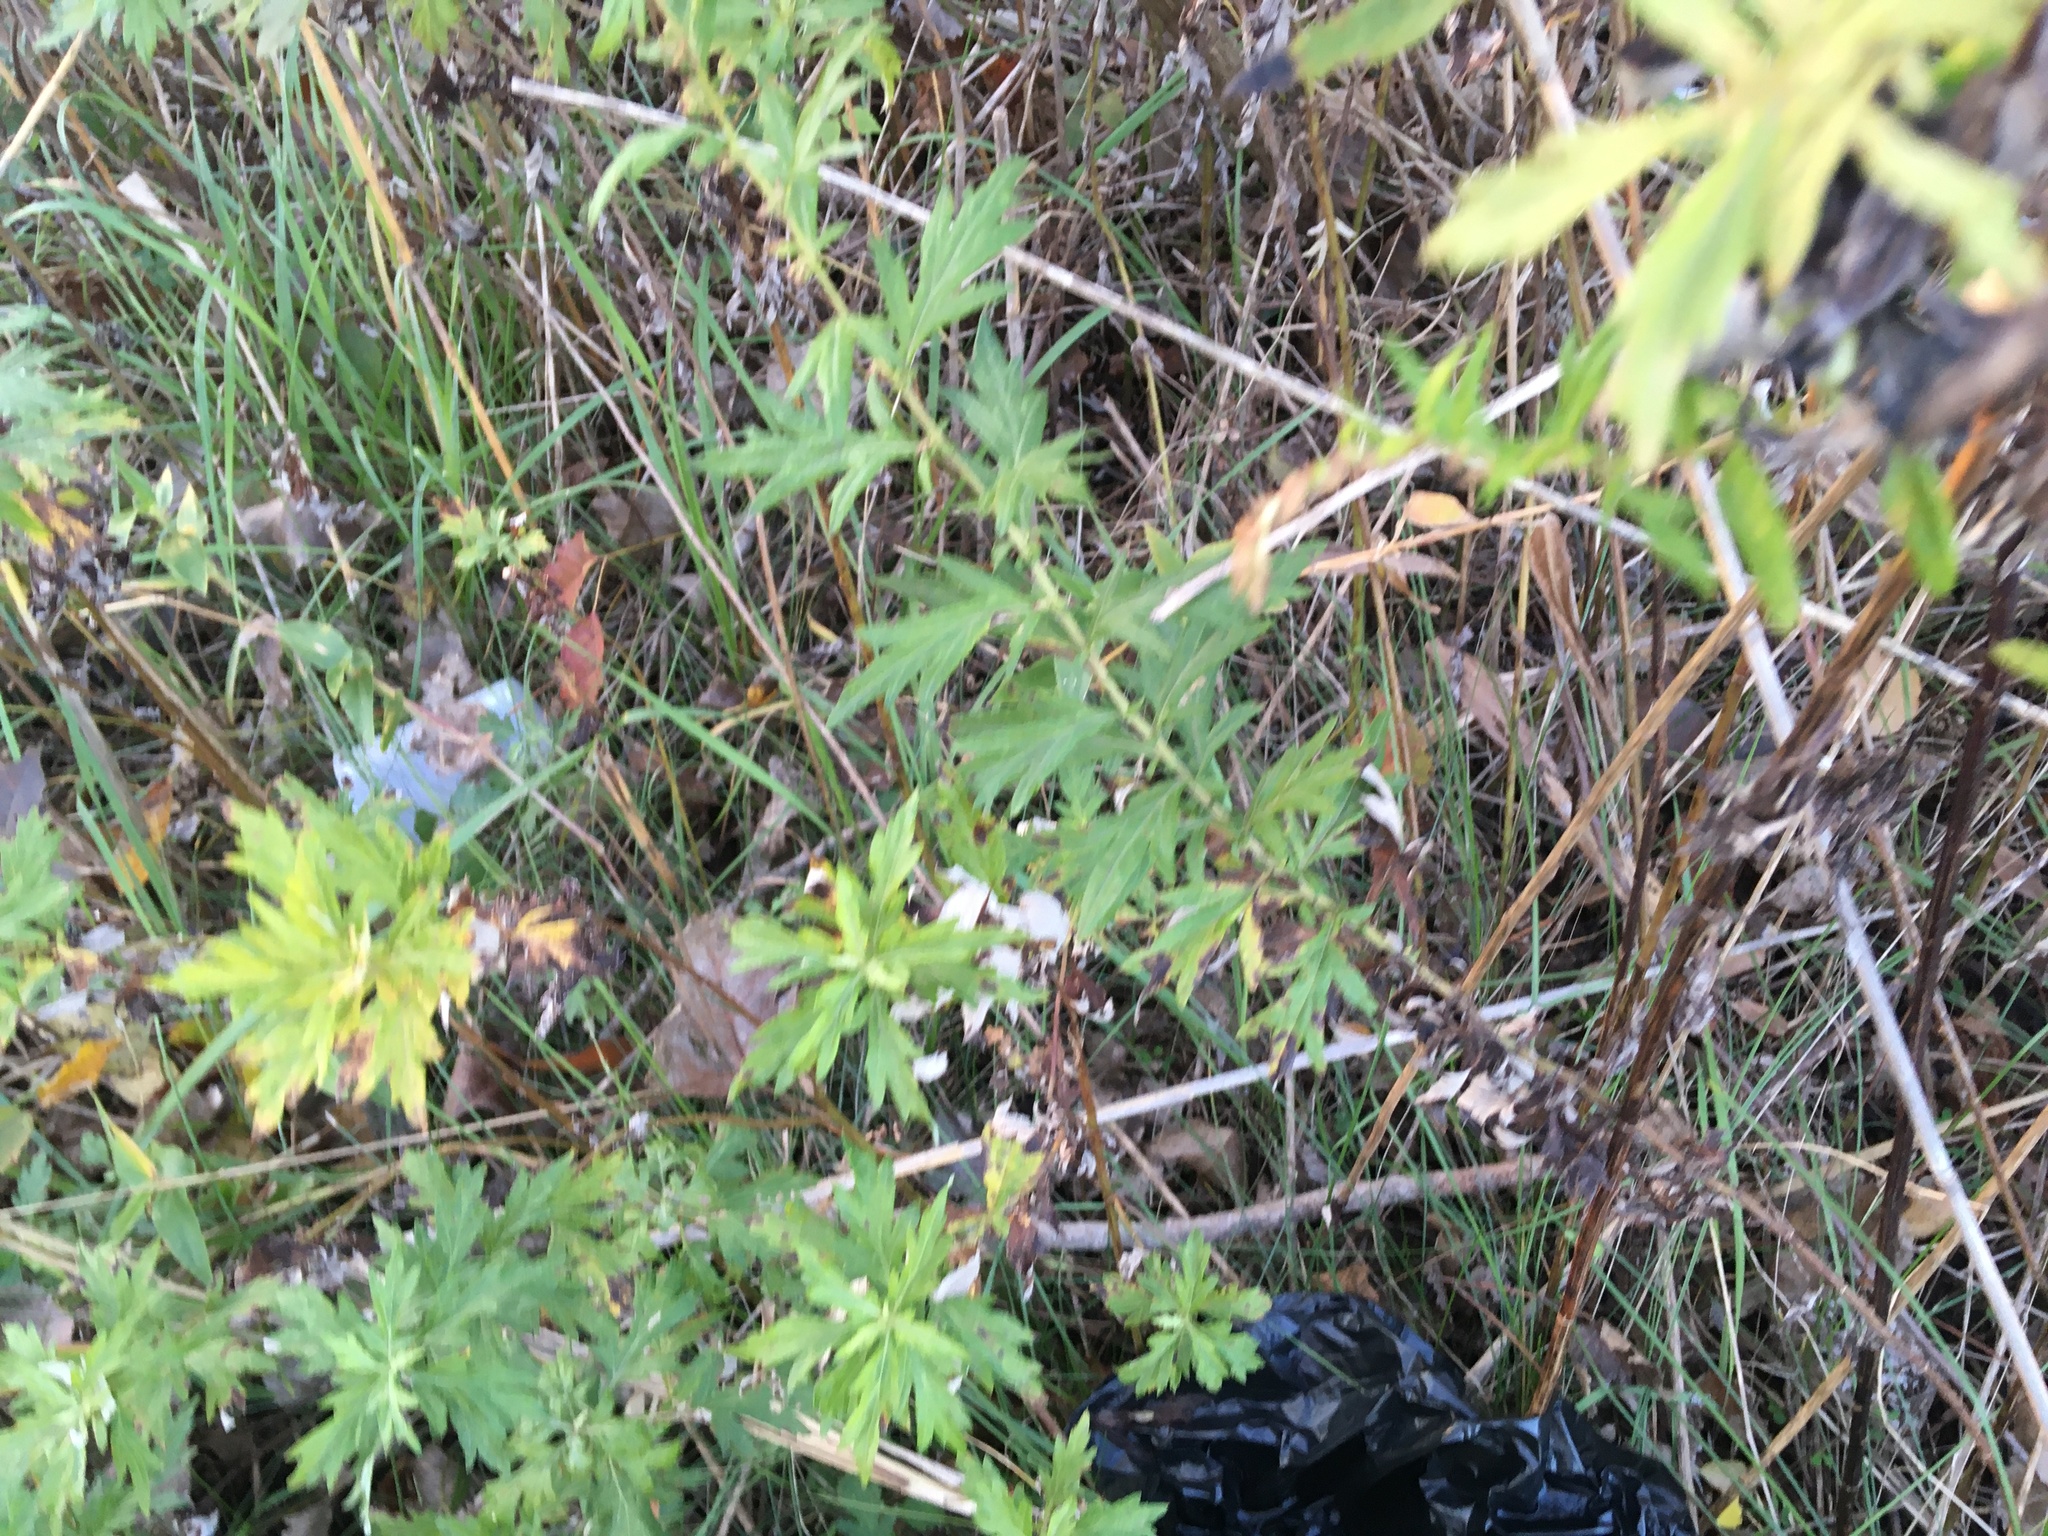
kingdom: Plantae
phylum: Tracheophyta
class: Magnoliopsida
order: Asterales
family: Asteraceae
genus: Artemisia
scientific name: Artemisia vulgaris
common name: Mugwort
